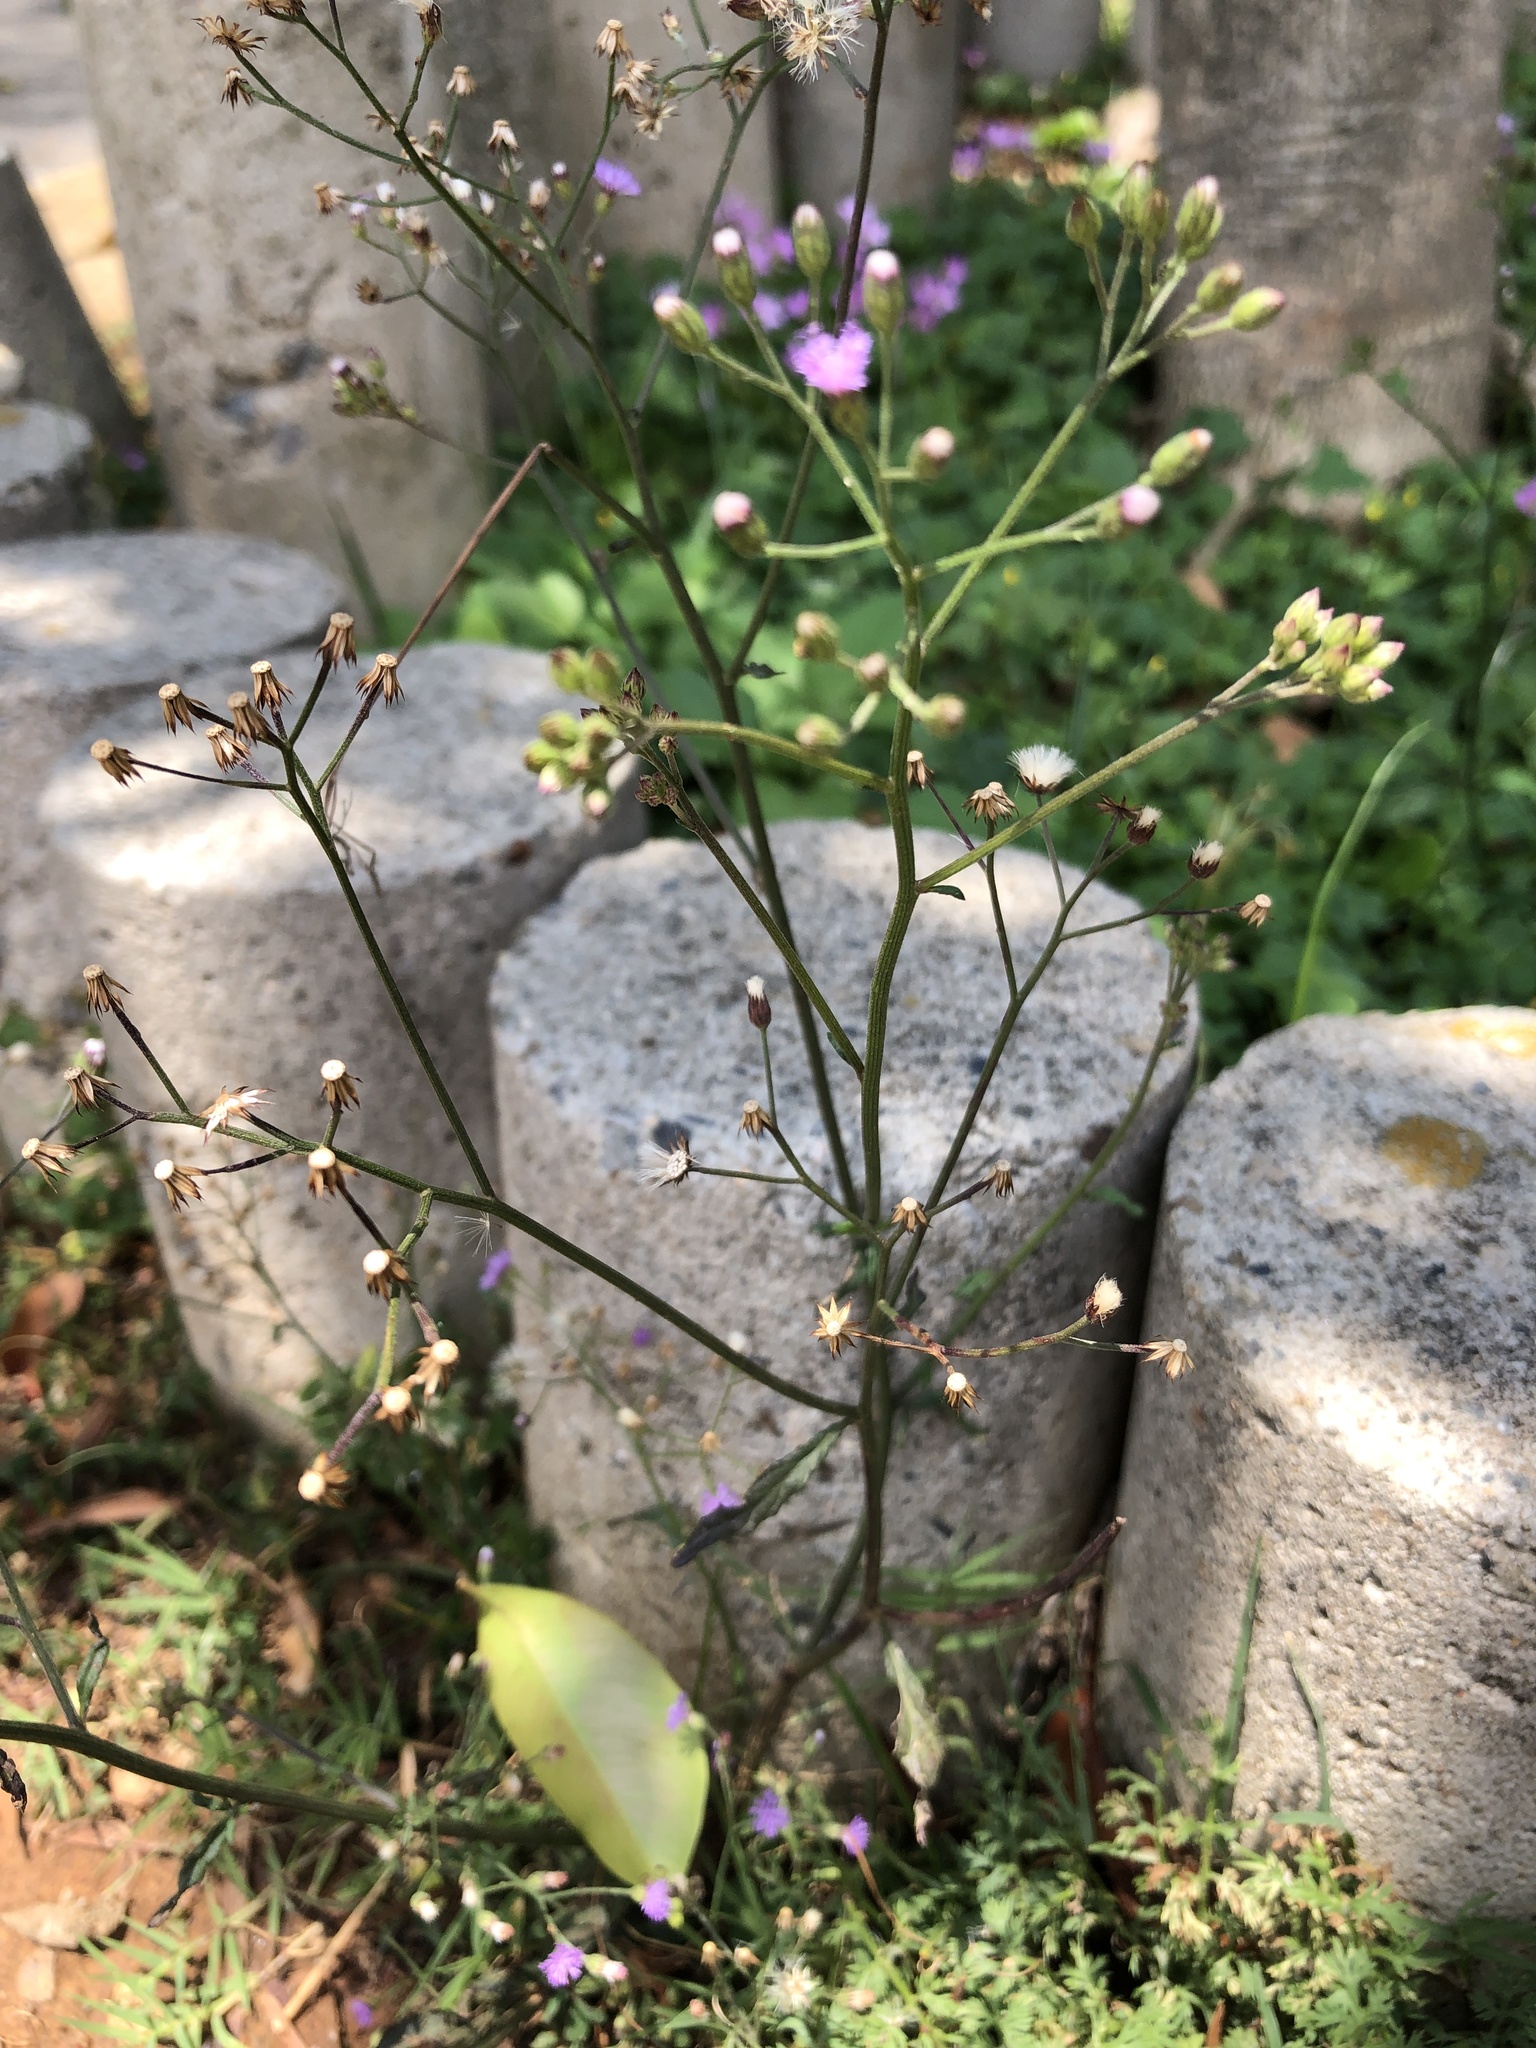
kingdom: Plantae
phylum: Tracheophyta
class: Magnoliopsida
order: Asterales
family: Asteraceae
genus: Cyanthillium
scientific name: Cyanthillium cinereum
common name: Little ironweed
